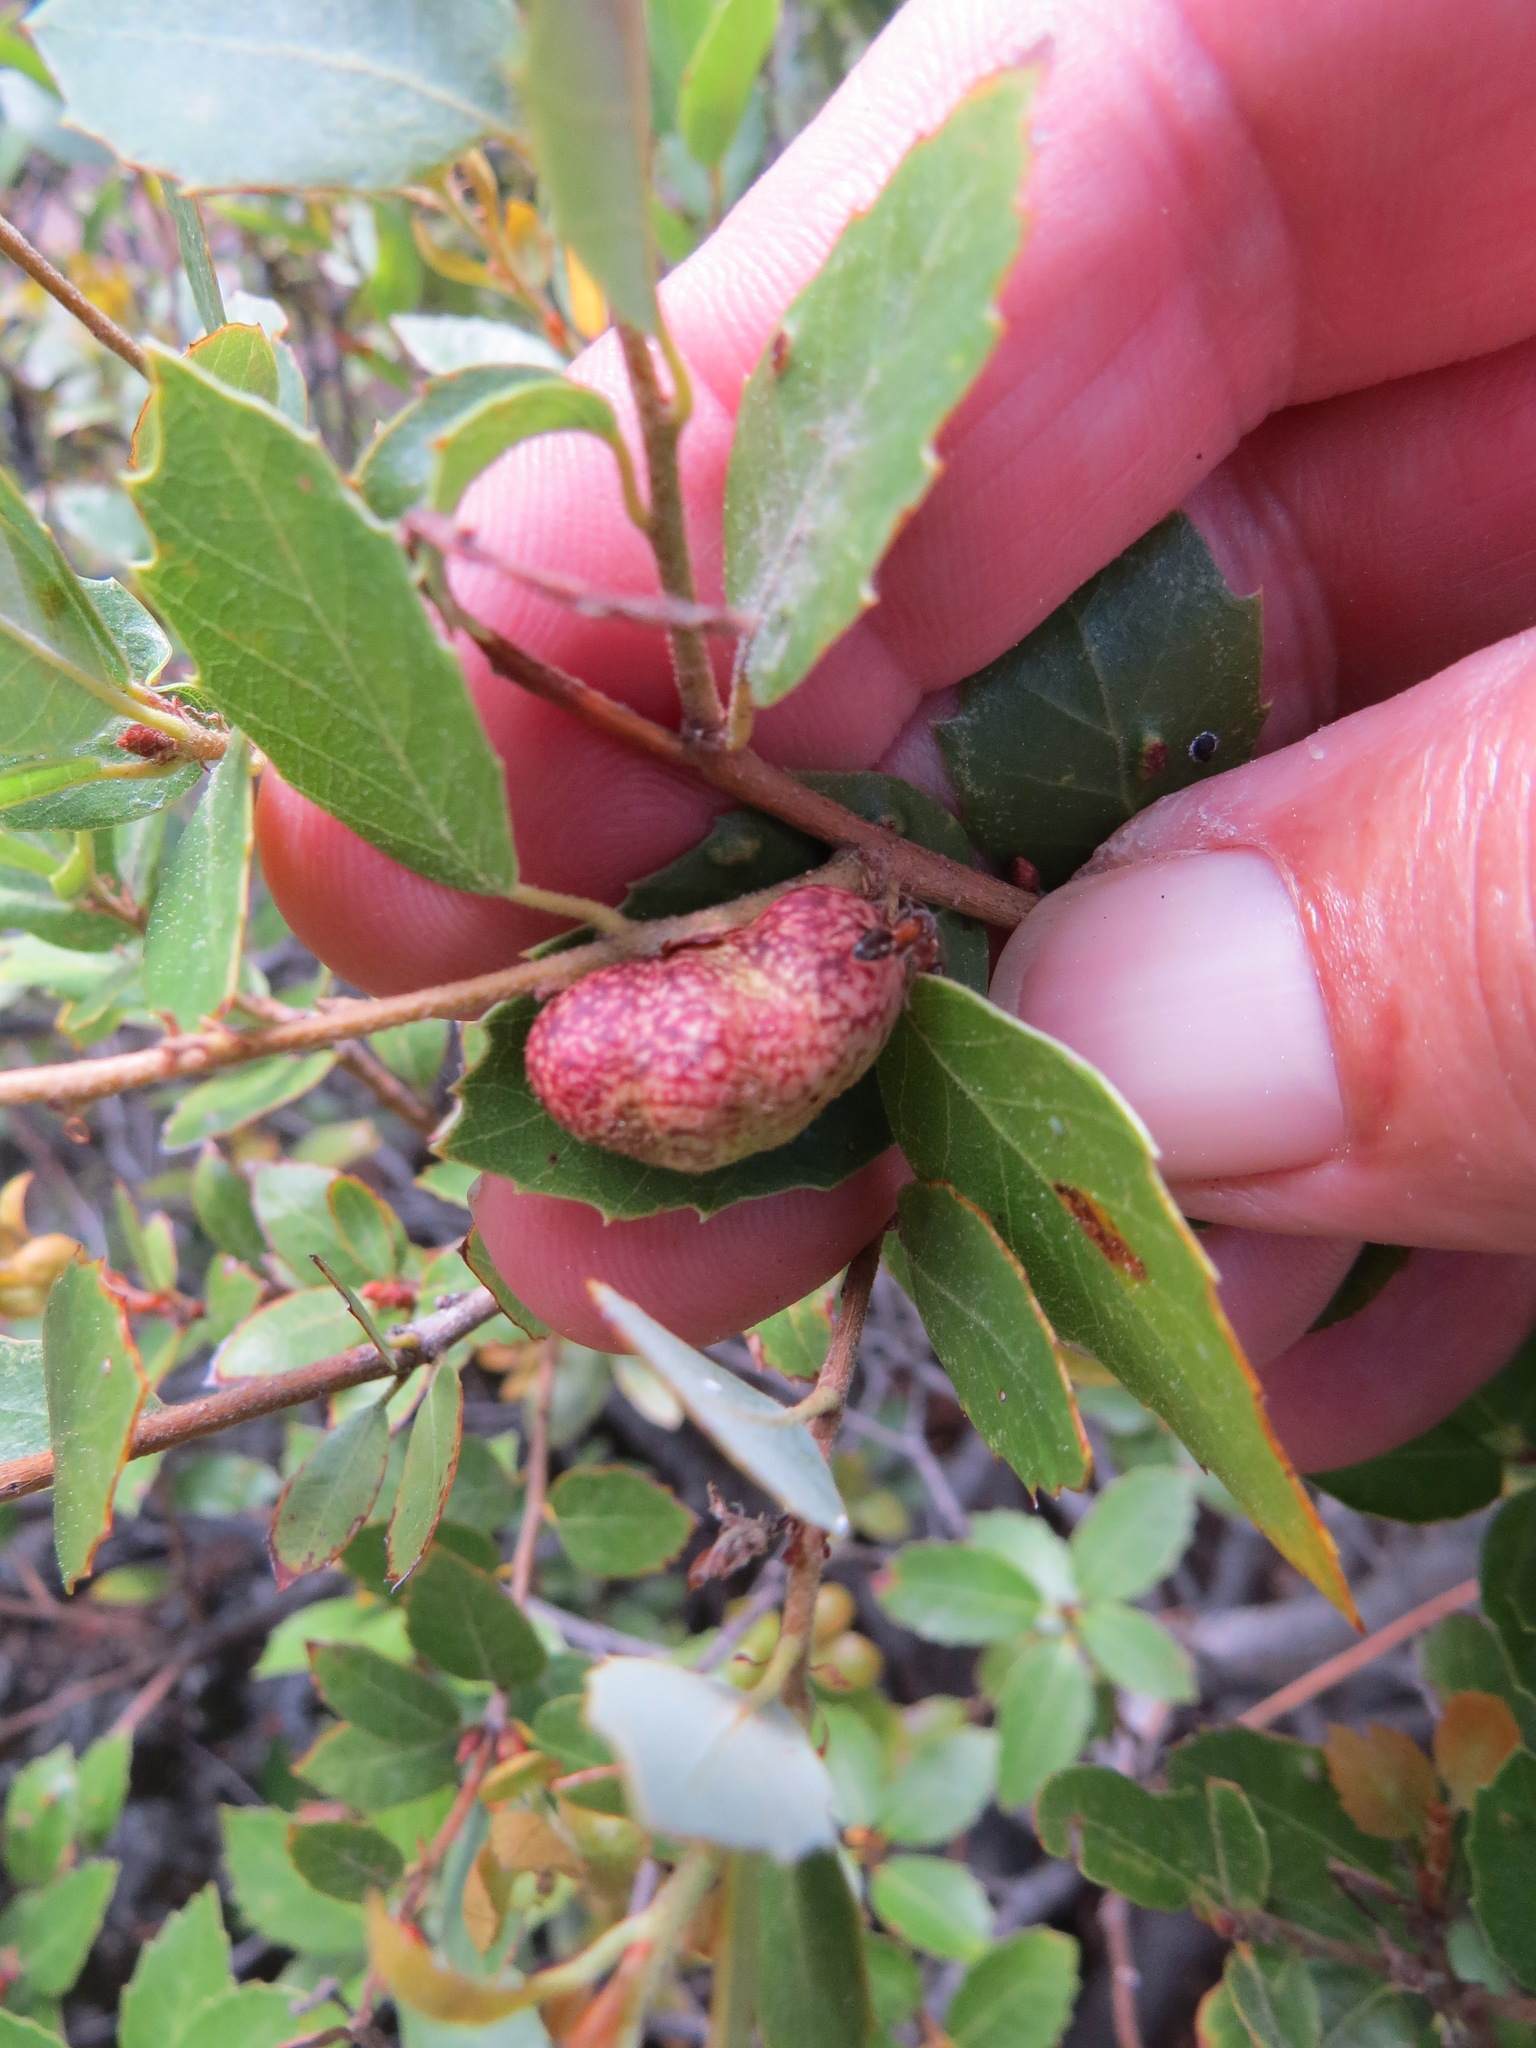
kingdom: Animalia
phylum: Arthropoda
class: Insecta
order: Hymenoptera
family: Cynipidae
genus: Disholandricus
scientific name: Disholandricus
